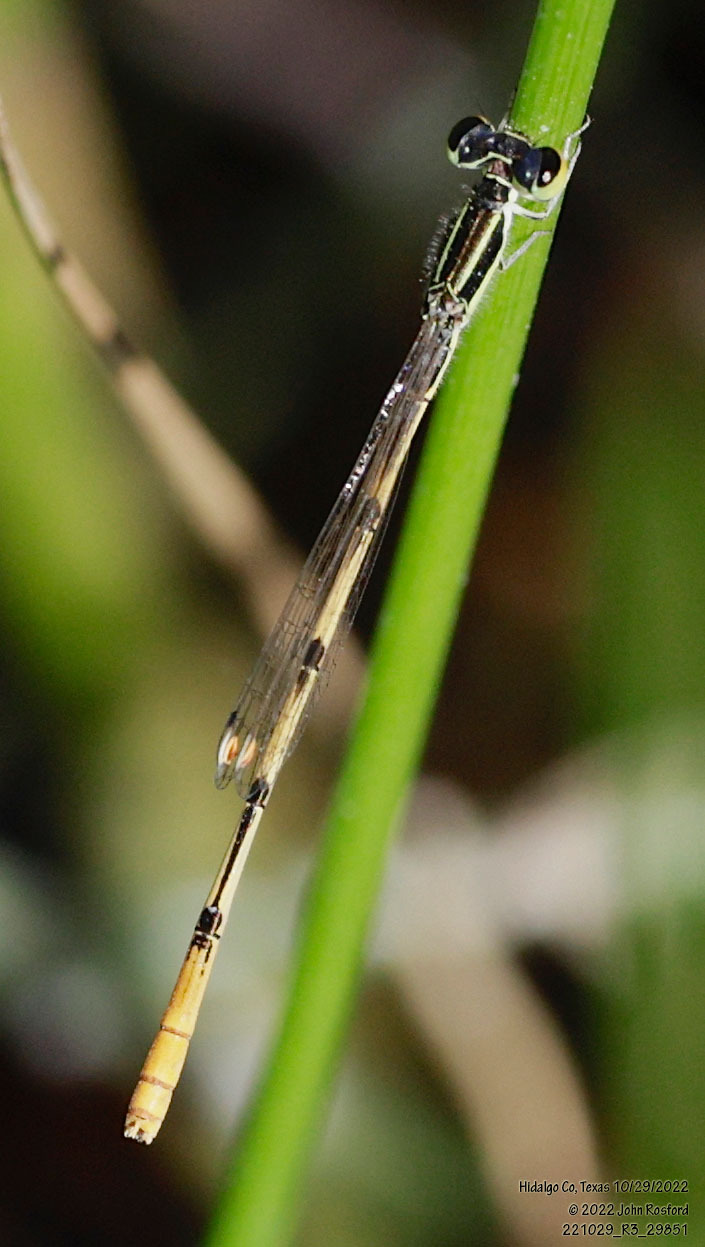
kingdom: Animalia
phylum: Arthropoda
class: Insecta
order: Odonata
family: Coenagrionidae
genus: Ischnura
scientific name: Ischnura hastata
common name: Citrine forktail
